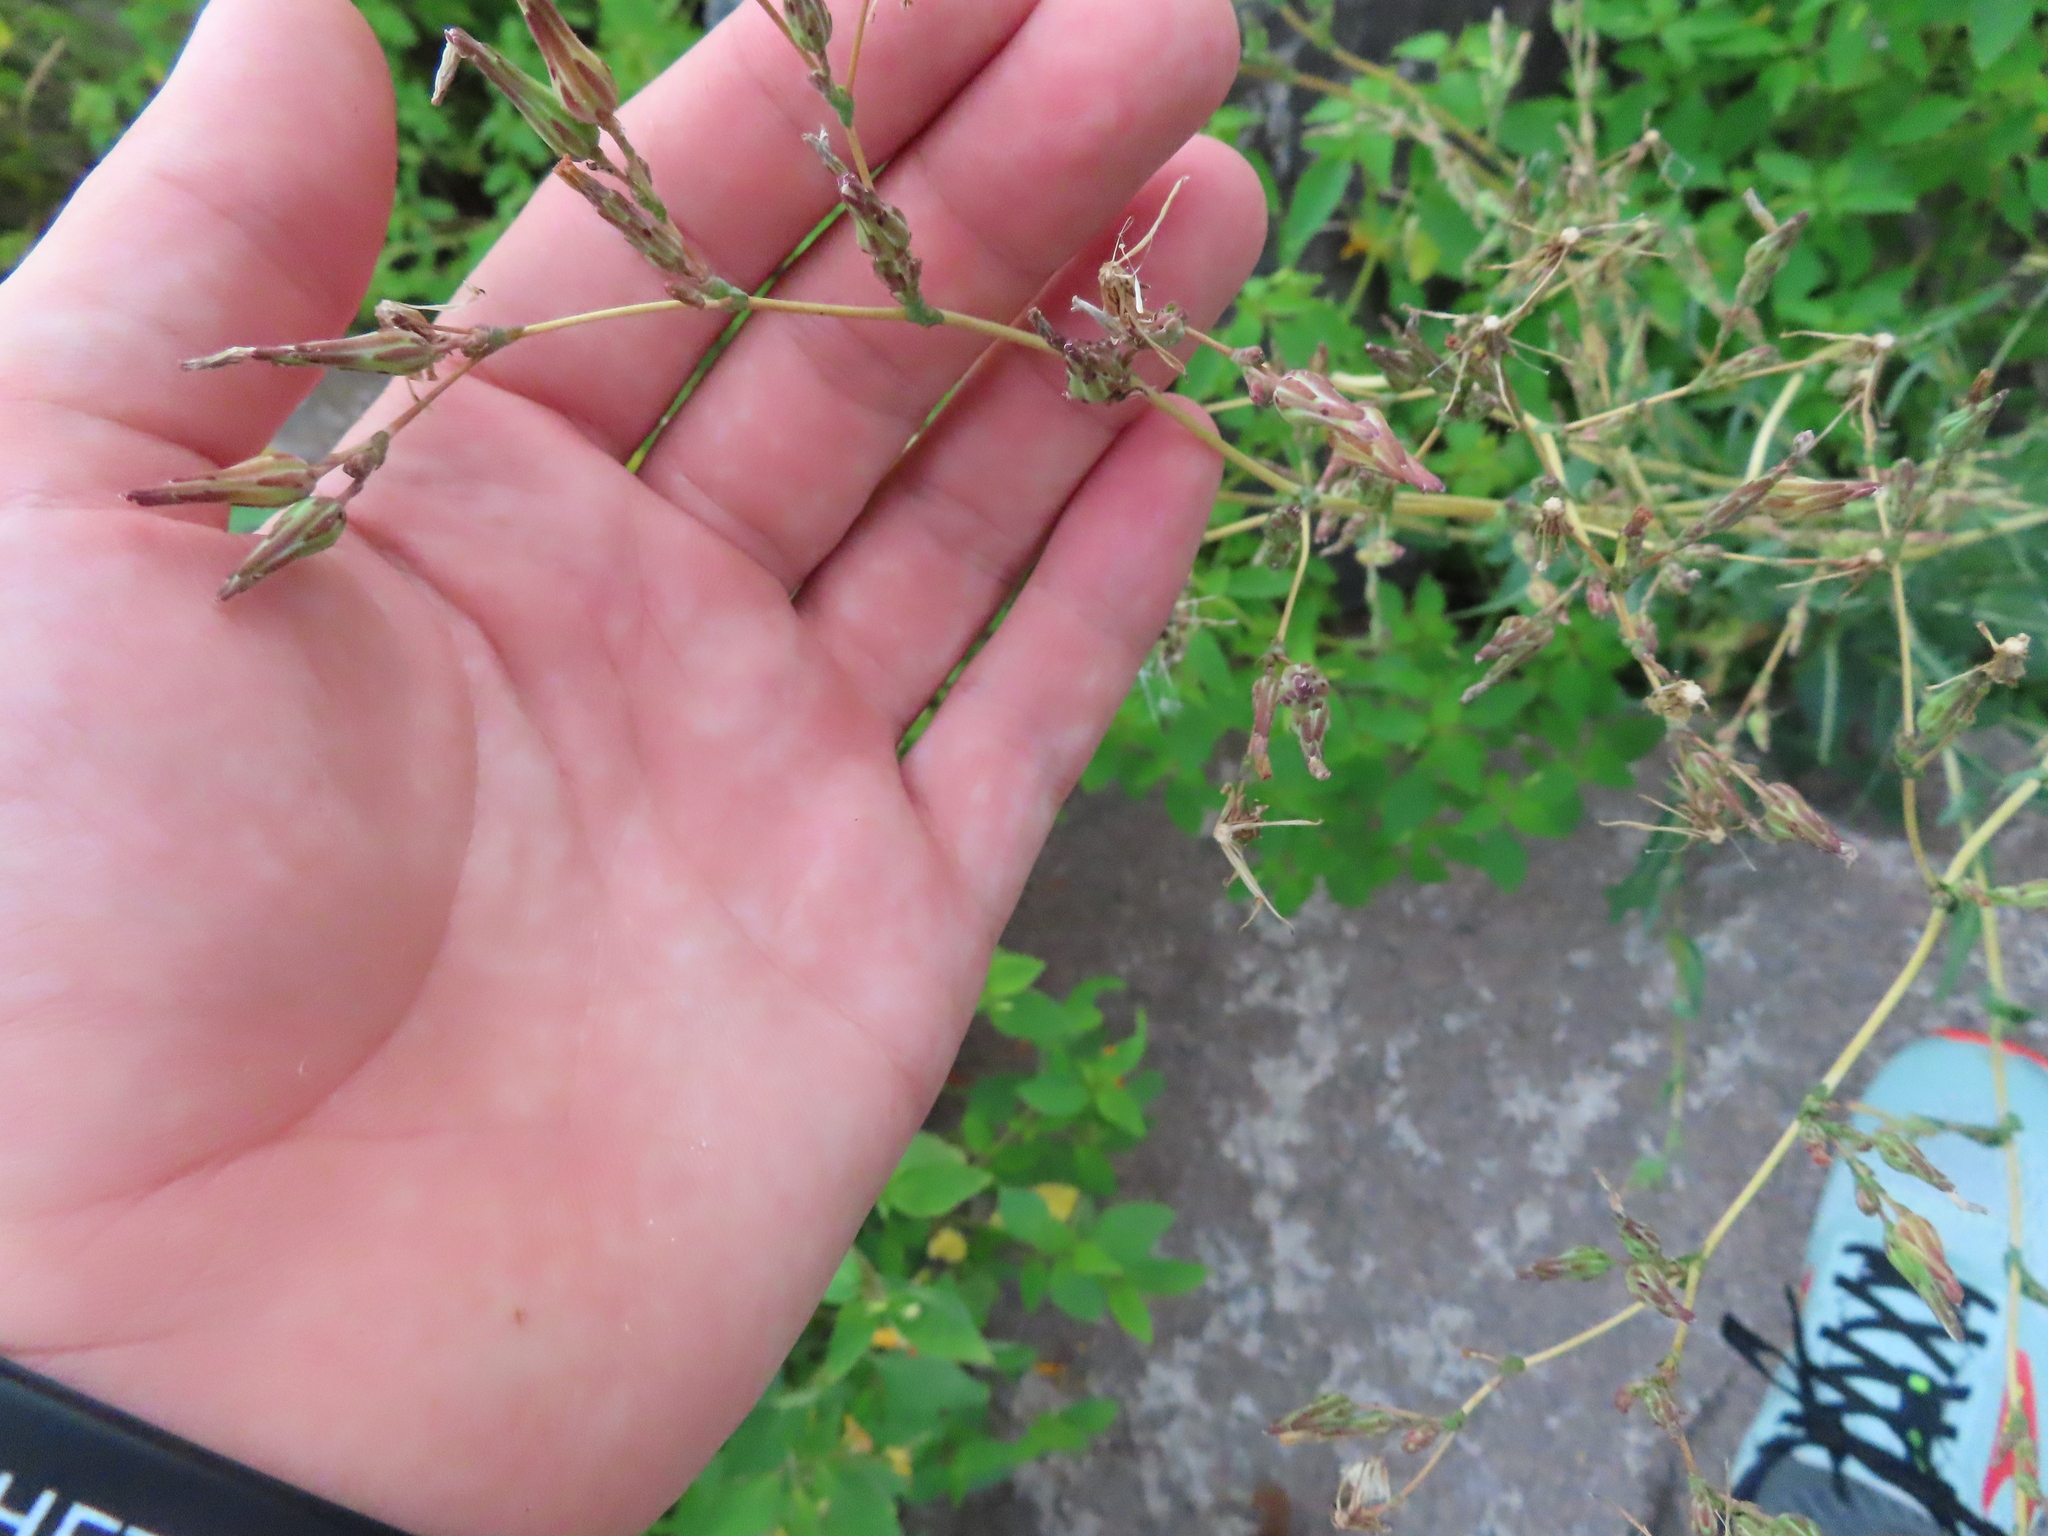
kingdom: Plantae
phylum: Tracheophyta
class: Magnoliopsida
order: Asterales
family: Asteraceae
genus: Lactuca
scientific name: Lactuca serriola
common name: Prickly lettuce
